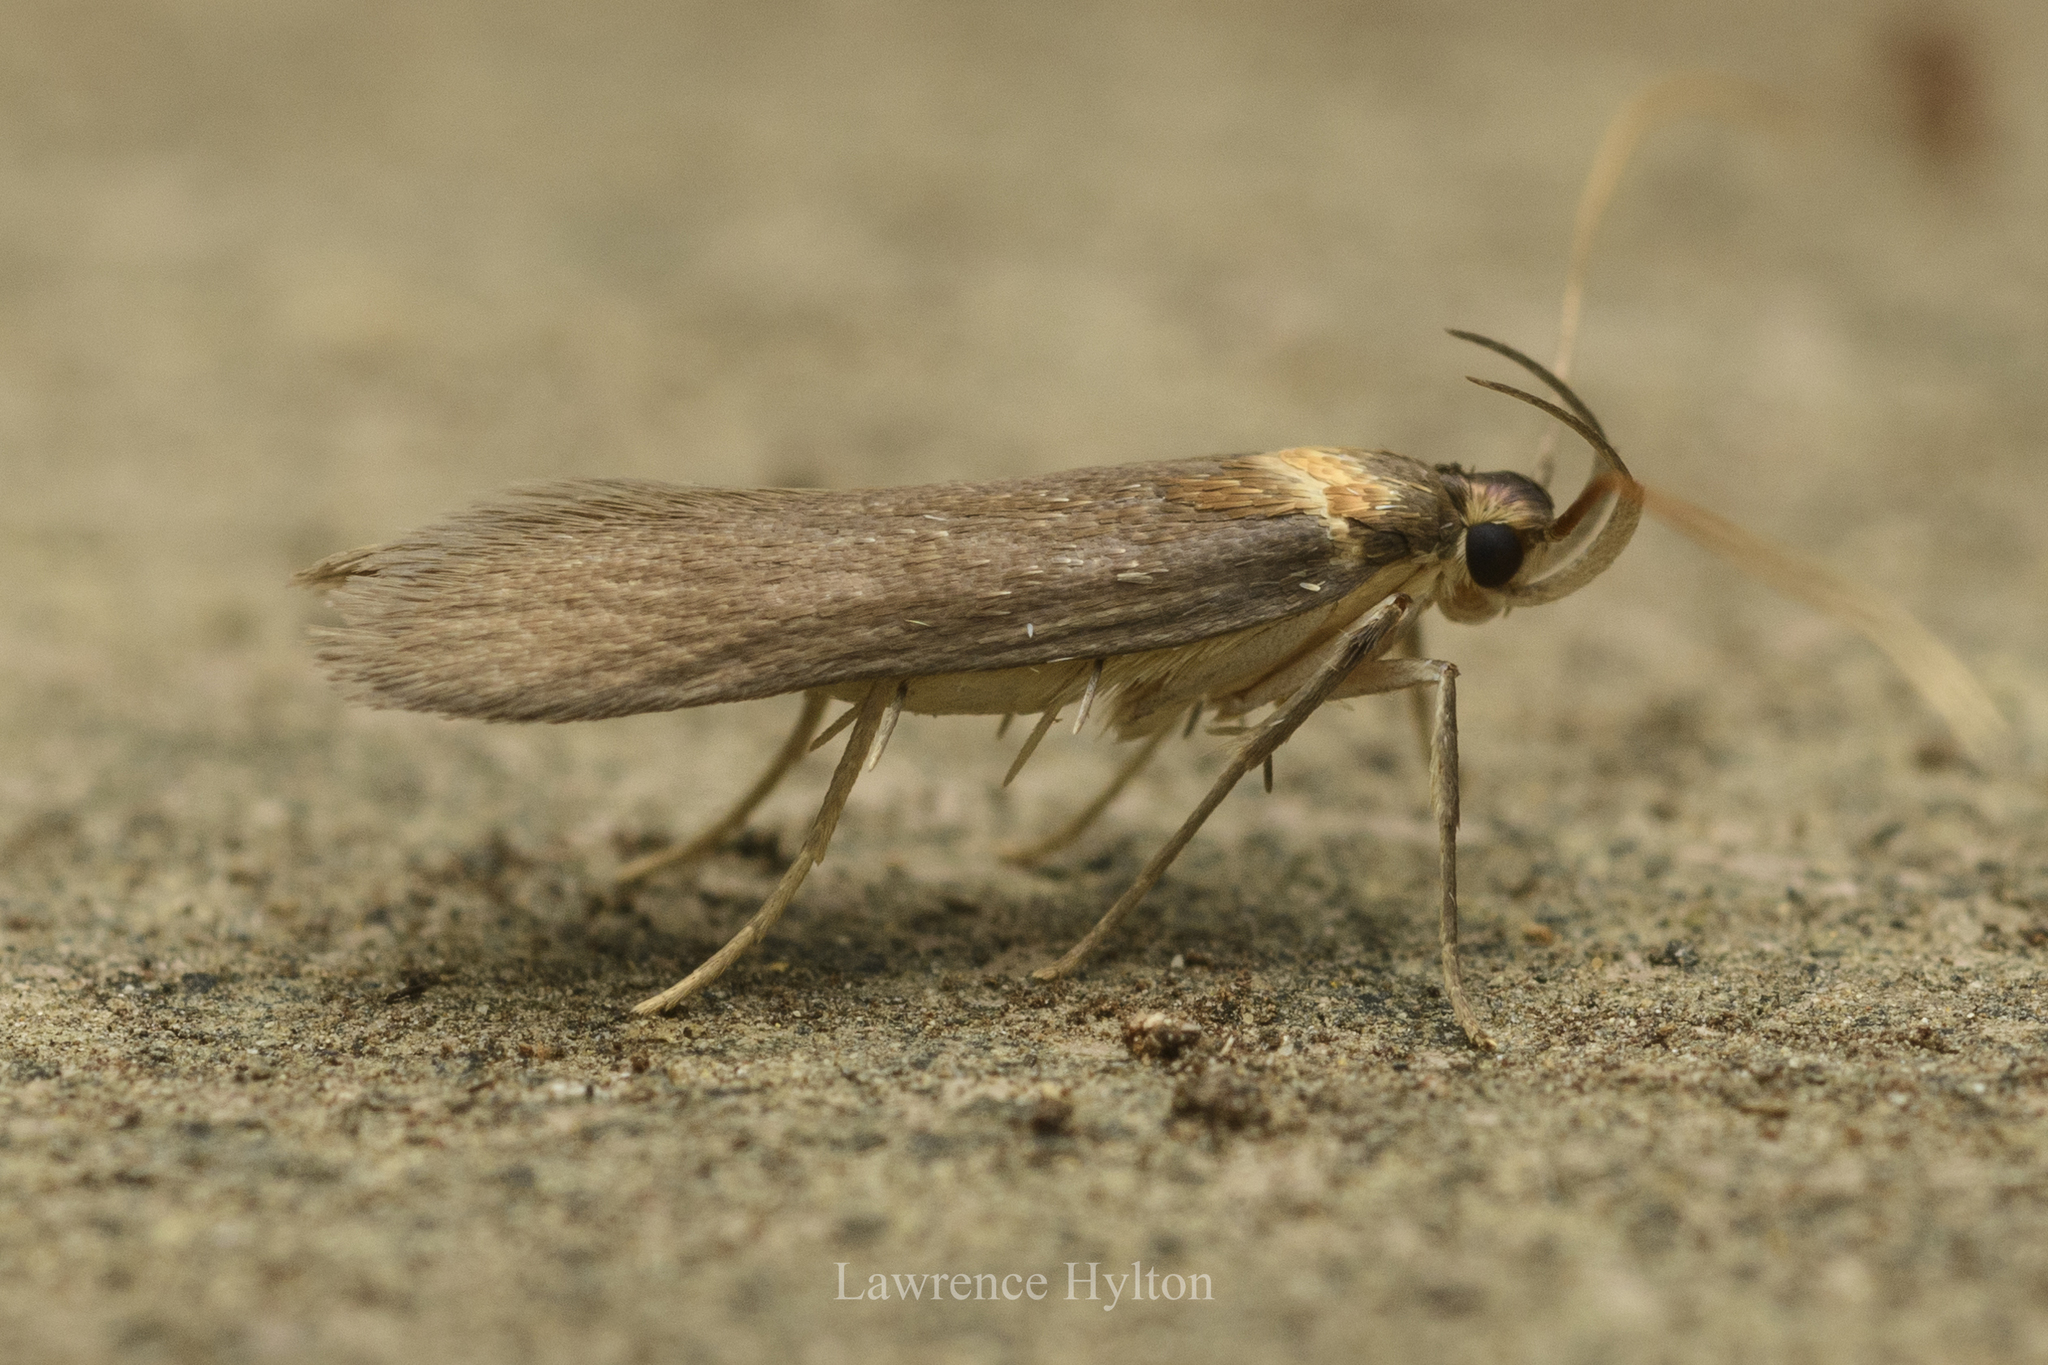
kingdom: Animalia
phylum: Arthropoda
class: Insecta
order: Lepidoptera
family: Lecithoceridae
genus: Tegenocharis
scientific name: Tegenocharis tenebrans
